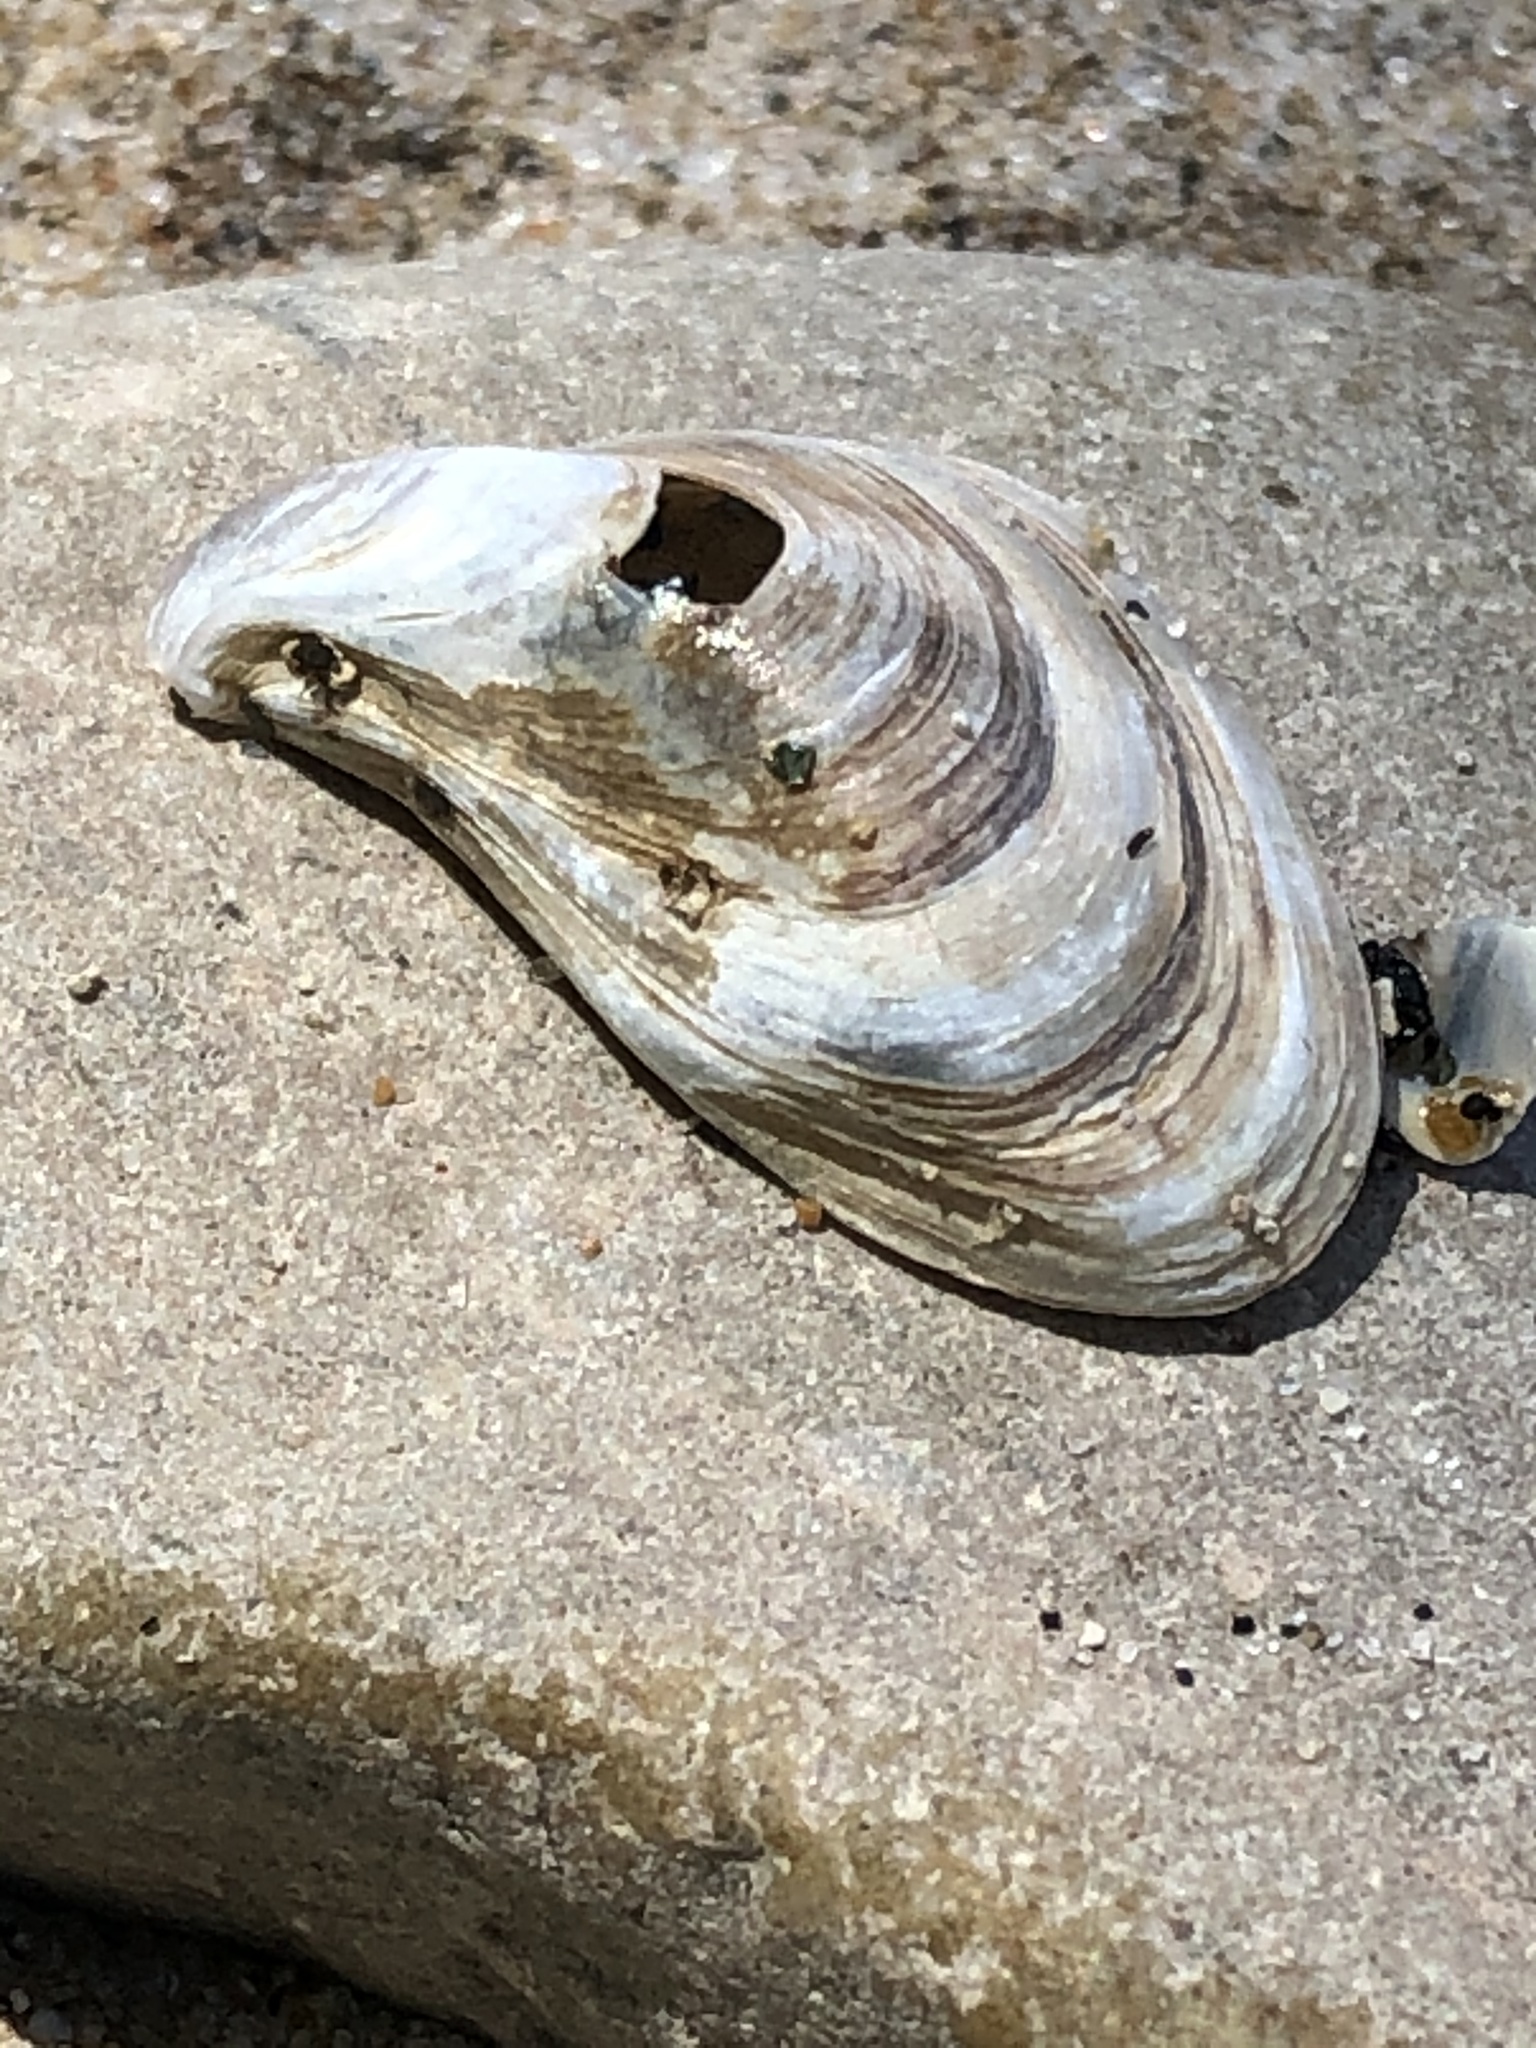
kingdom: Animalia
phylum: Mollusca
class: Bivalvia
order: Myida
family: Dreissenidae
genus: Dreissena
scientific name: Dreissena bugensis
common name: Quagga mussel
